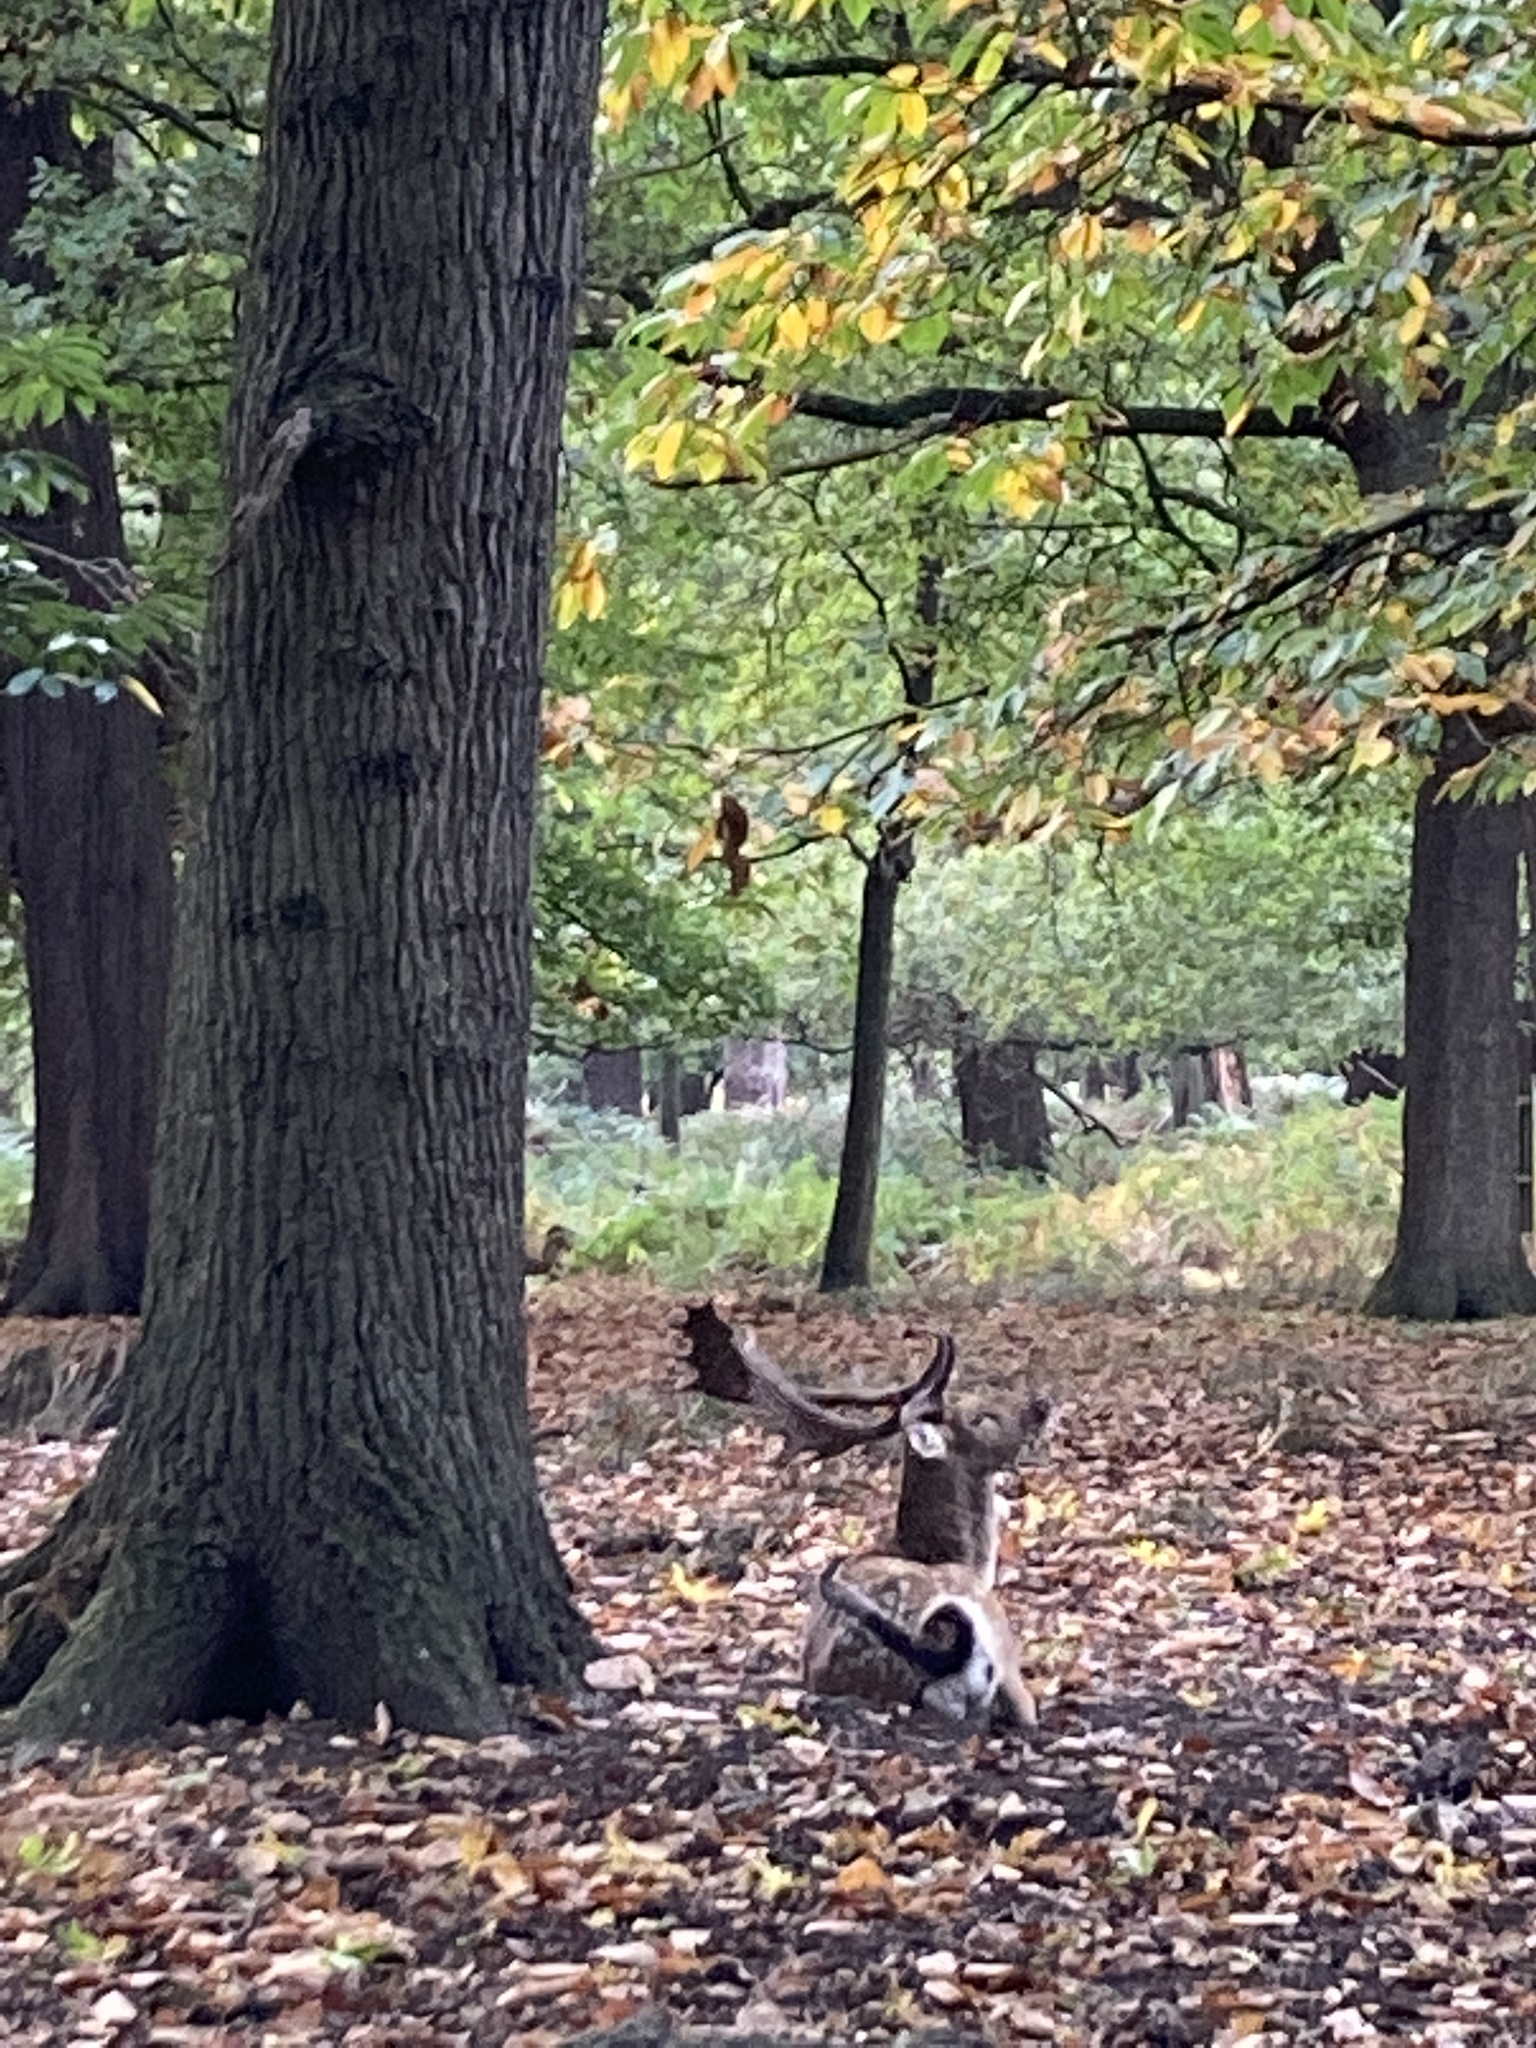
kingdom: Animalia
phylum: Chordata
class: Mammalia
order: Artiodactyla
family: Cervidae
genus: Dama
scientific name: Dama dama
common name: Fallow deer
